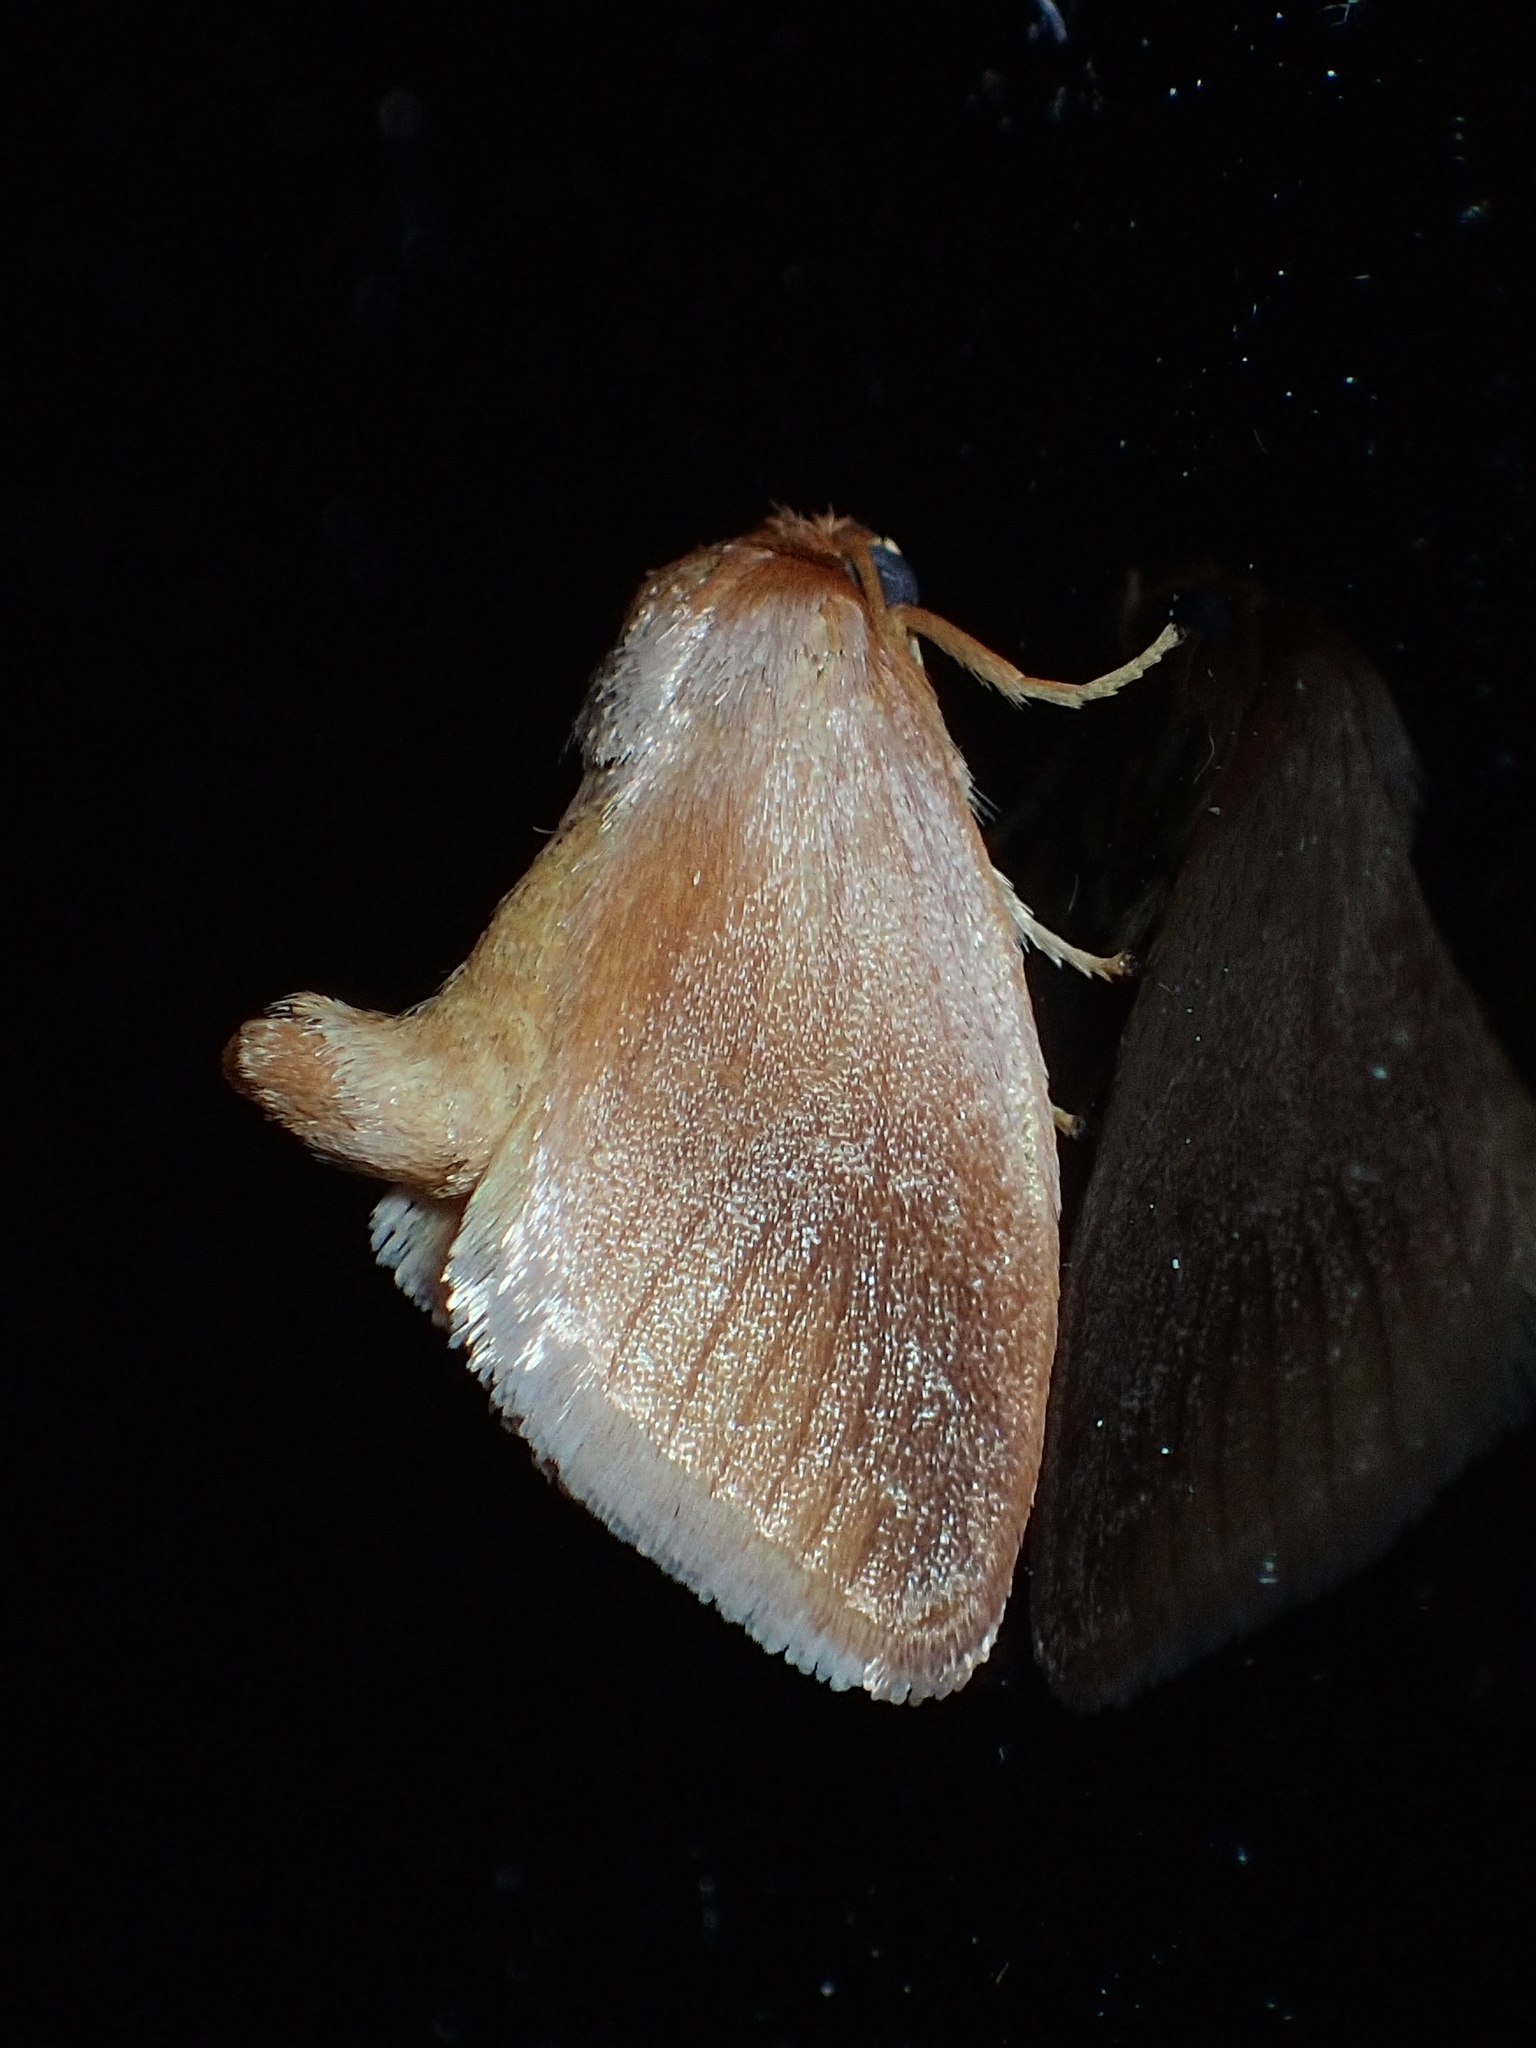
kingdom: Animalia
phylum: Arthropoda
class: Insecta
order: Lepidoptera
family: Limacodidae
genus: Tortricidia
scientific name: Tortricidia testacea
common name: Early button slug moth
